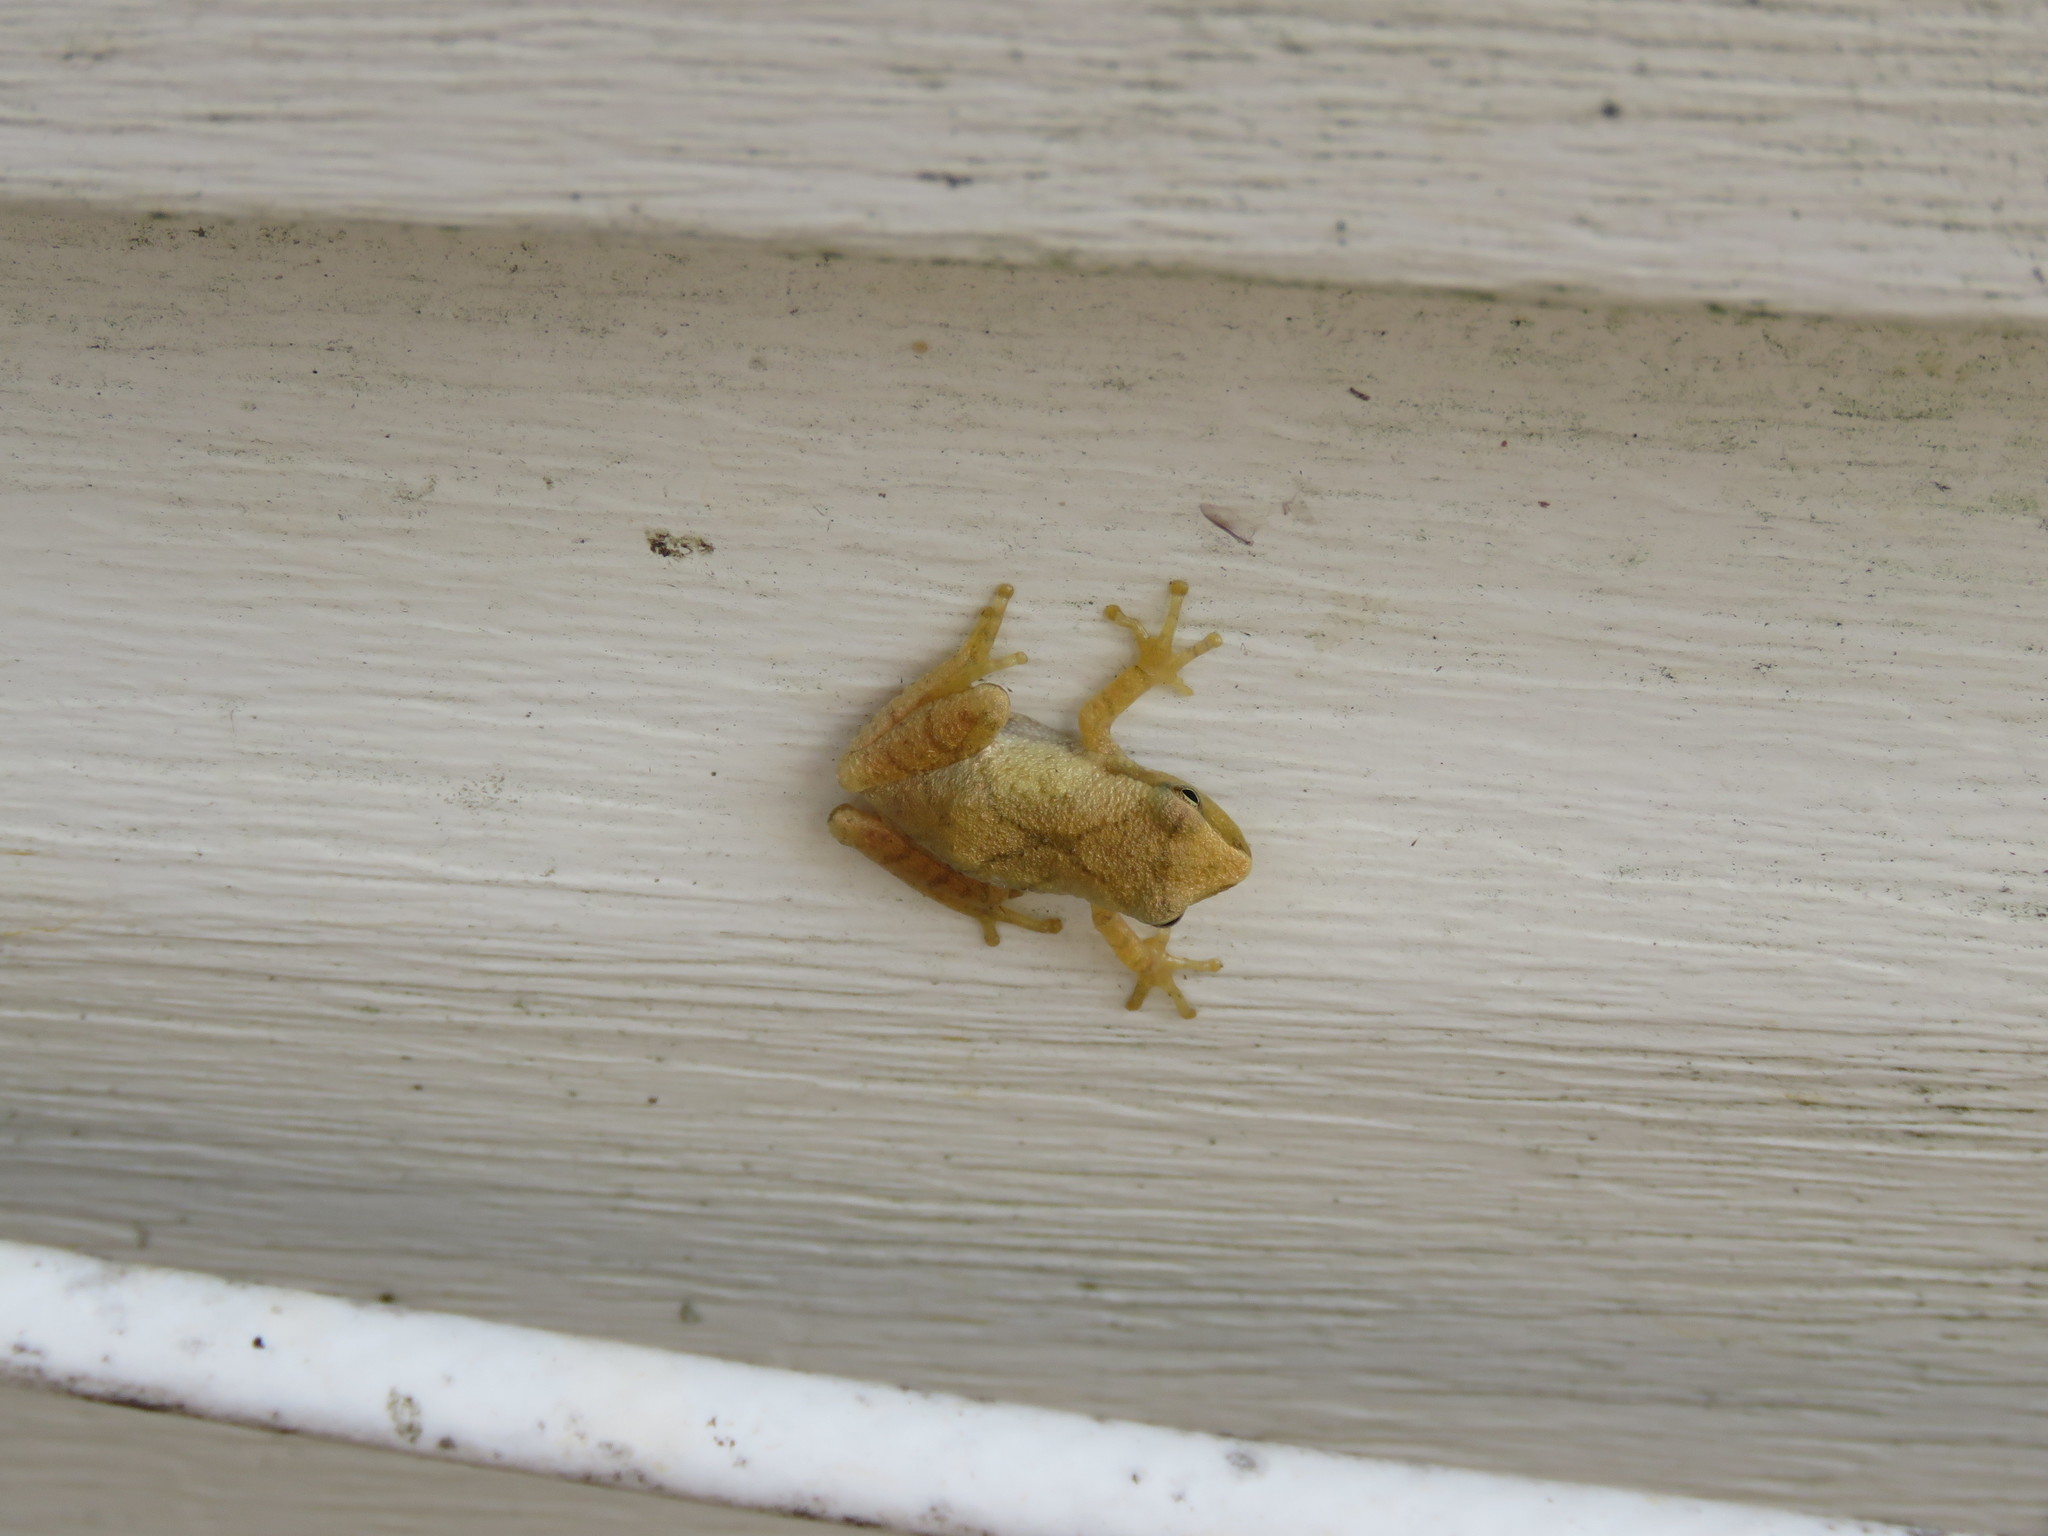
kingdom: Animalia
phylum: Chordata
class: Amphibia
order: Anura
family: Hylidae
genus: Pseudacris
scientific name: Pseudacris crucifer
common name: Spring peeper
